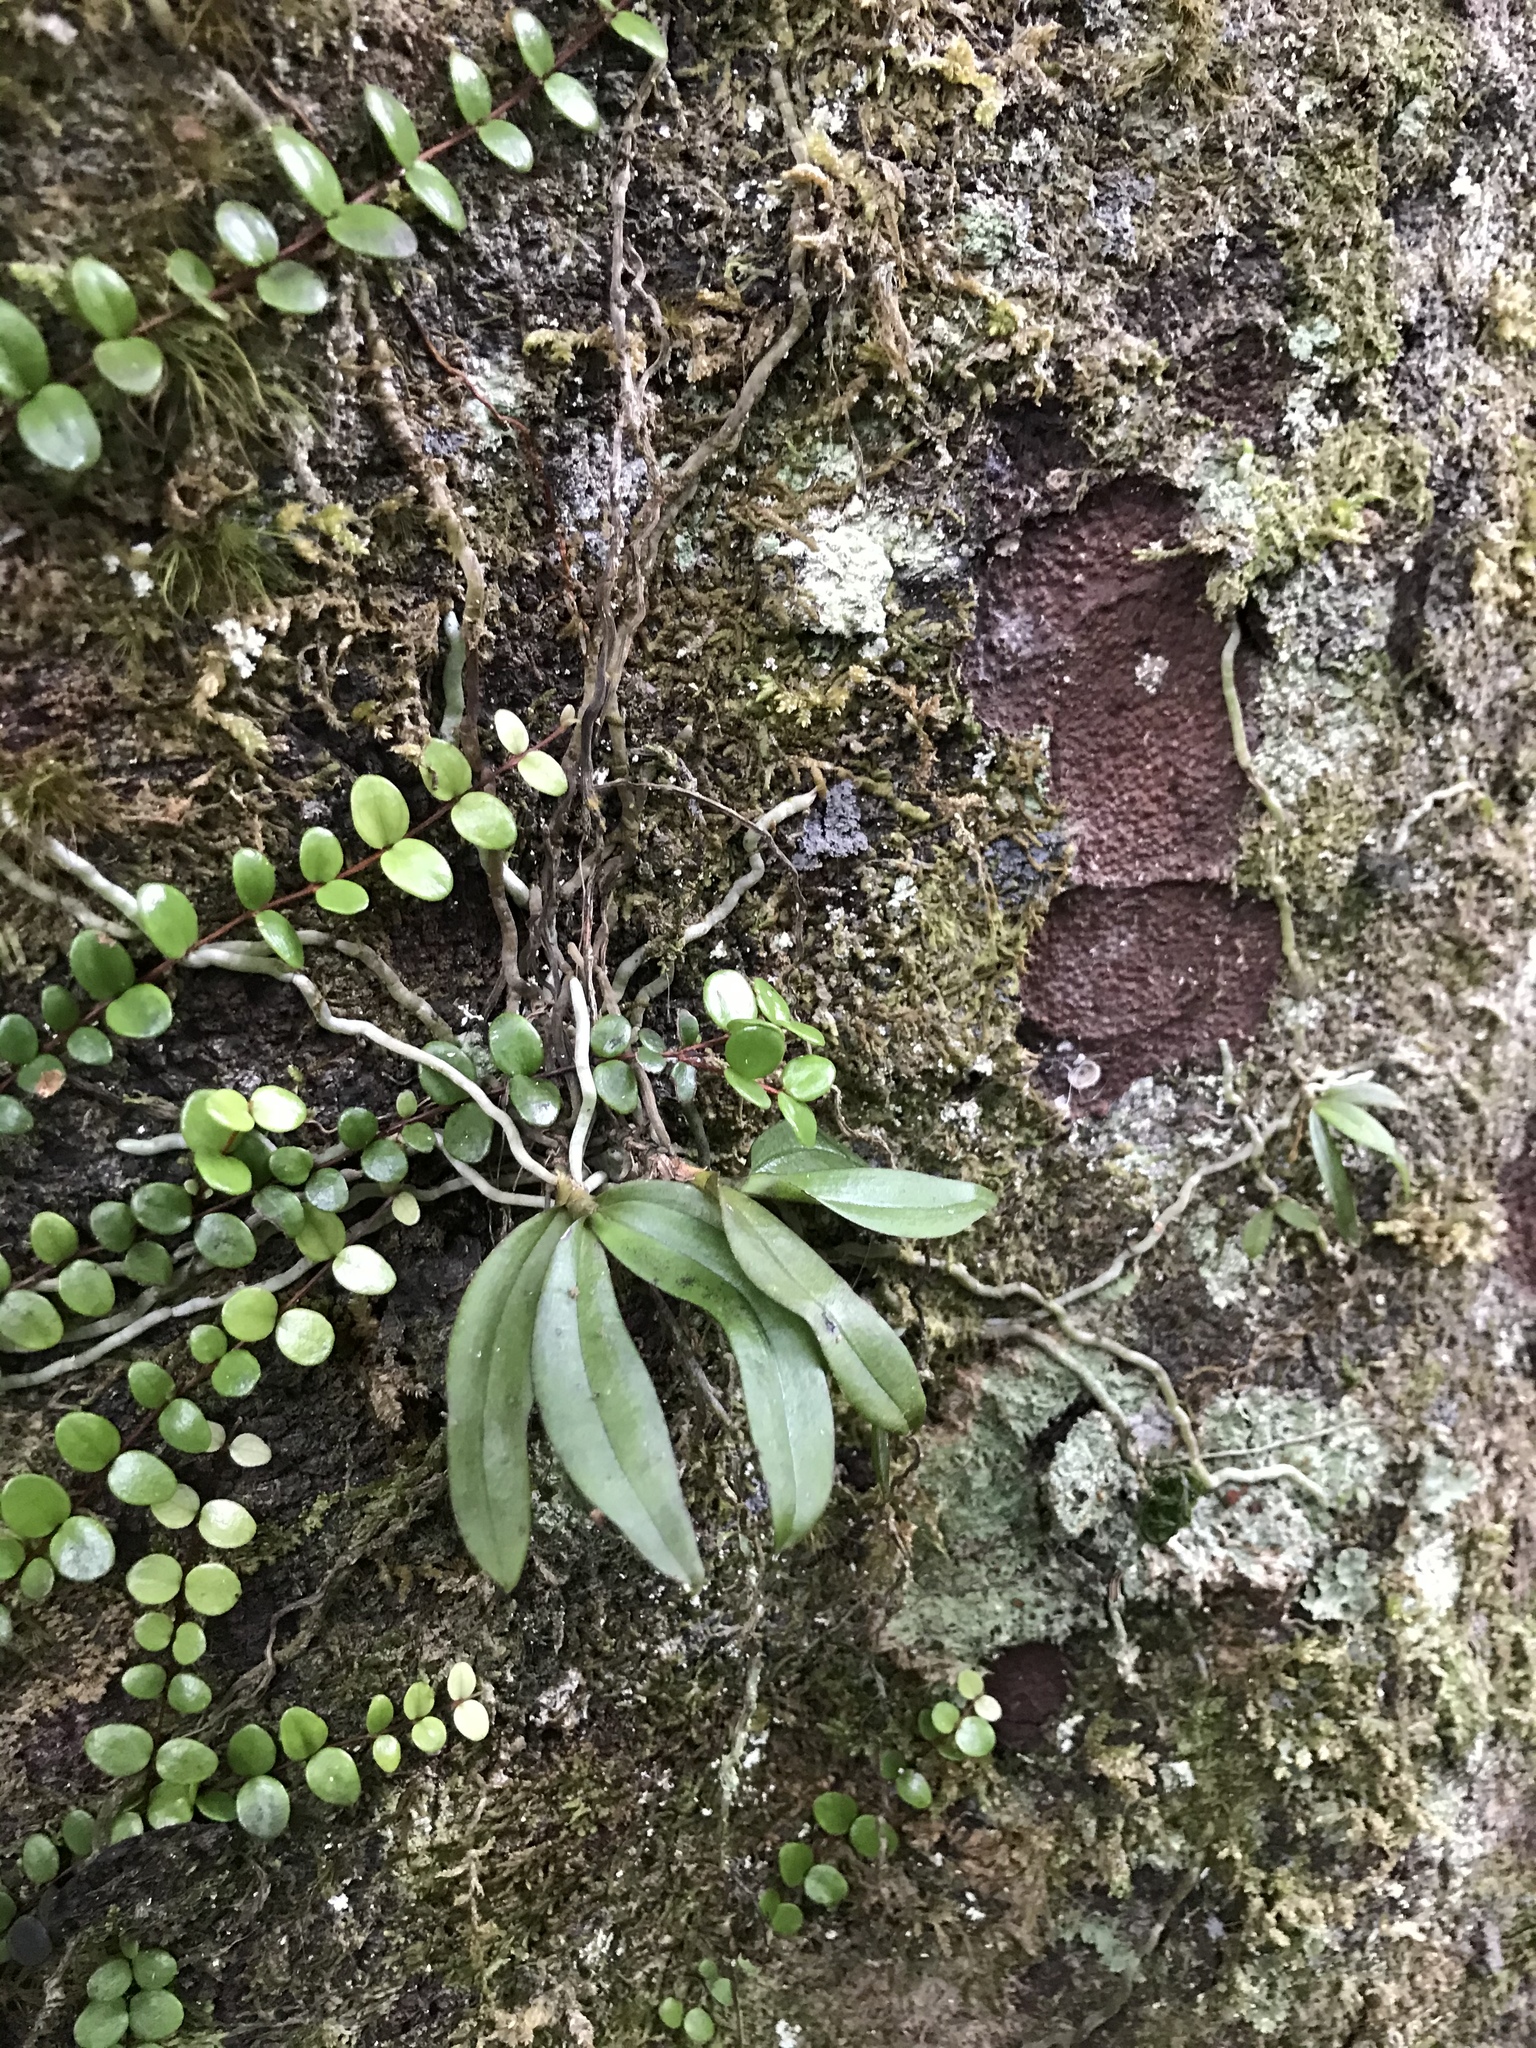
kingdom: Plantae
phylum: Tracheophyta
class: Liliopsida
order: Asparagales
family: Orchidaceae
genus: Drymoanthus
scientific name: Drymoanthus adversus
